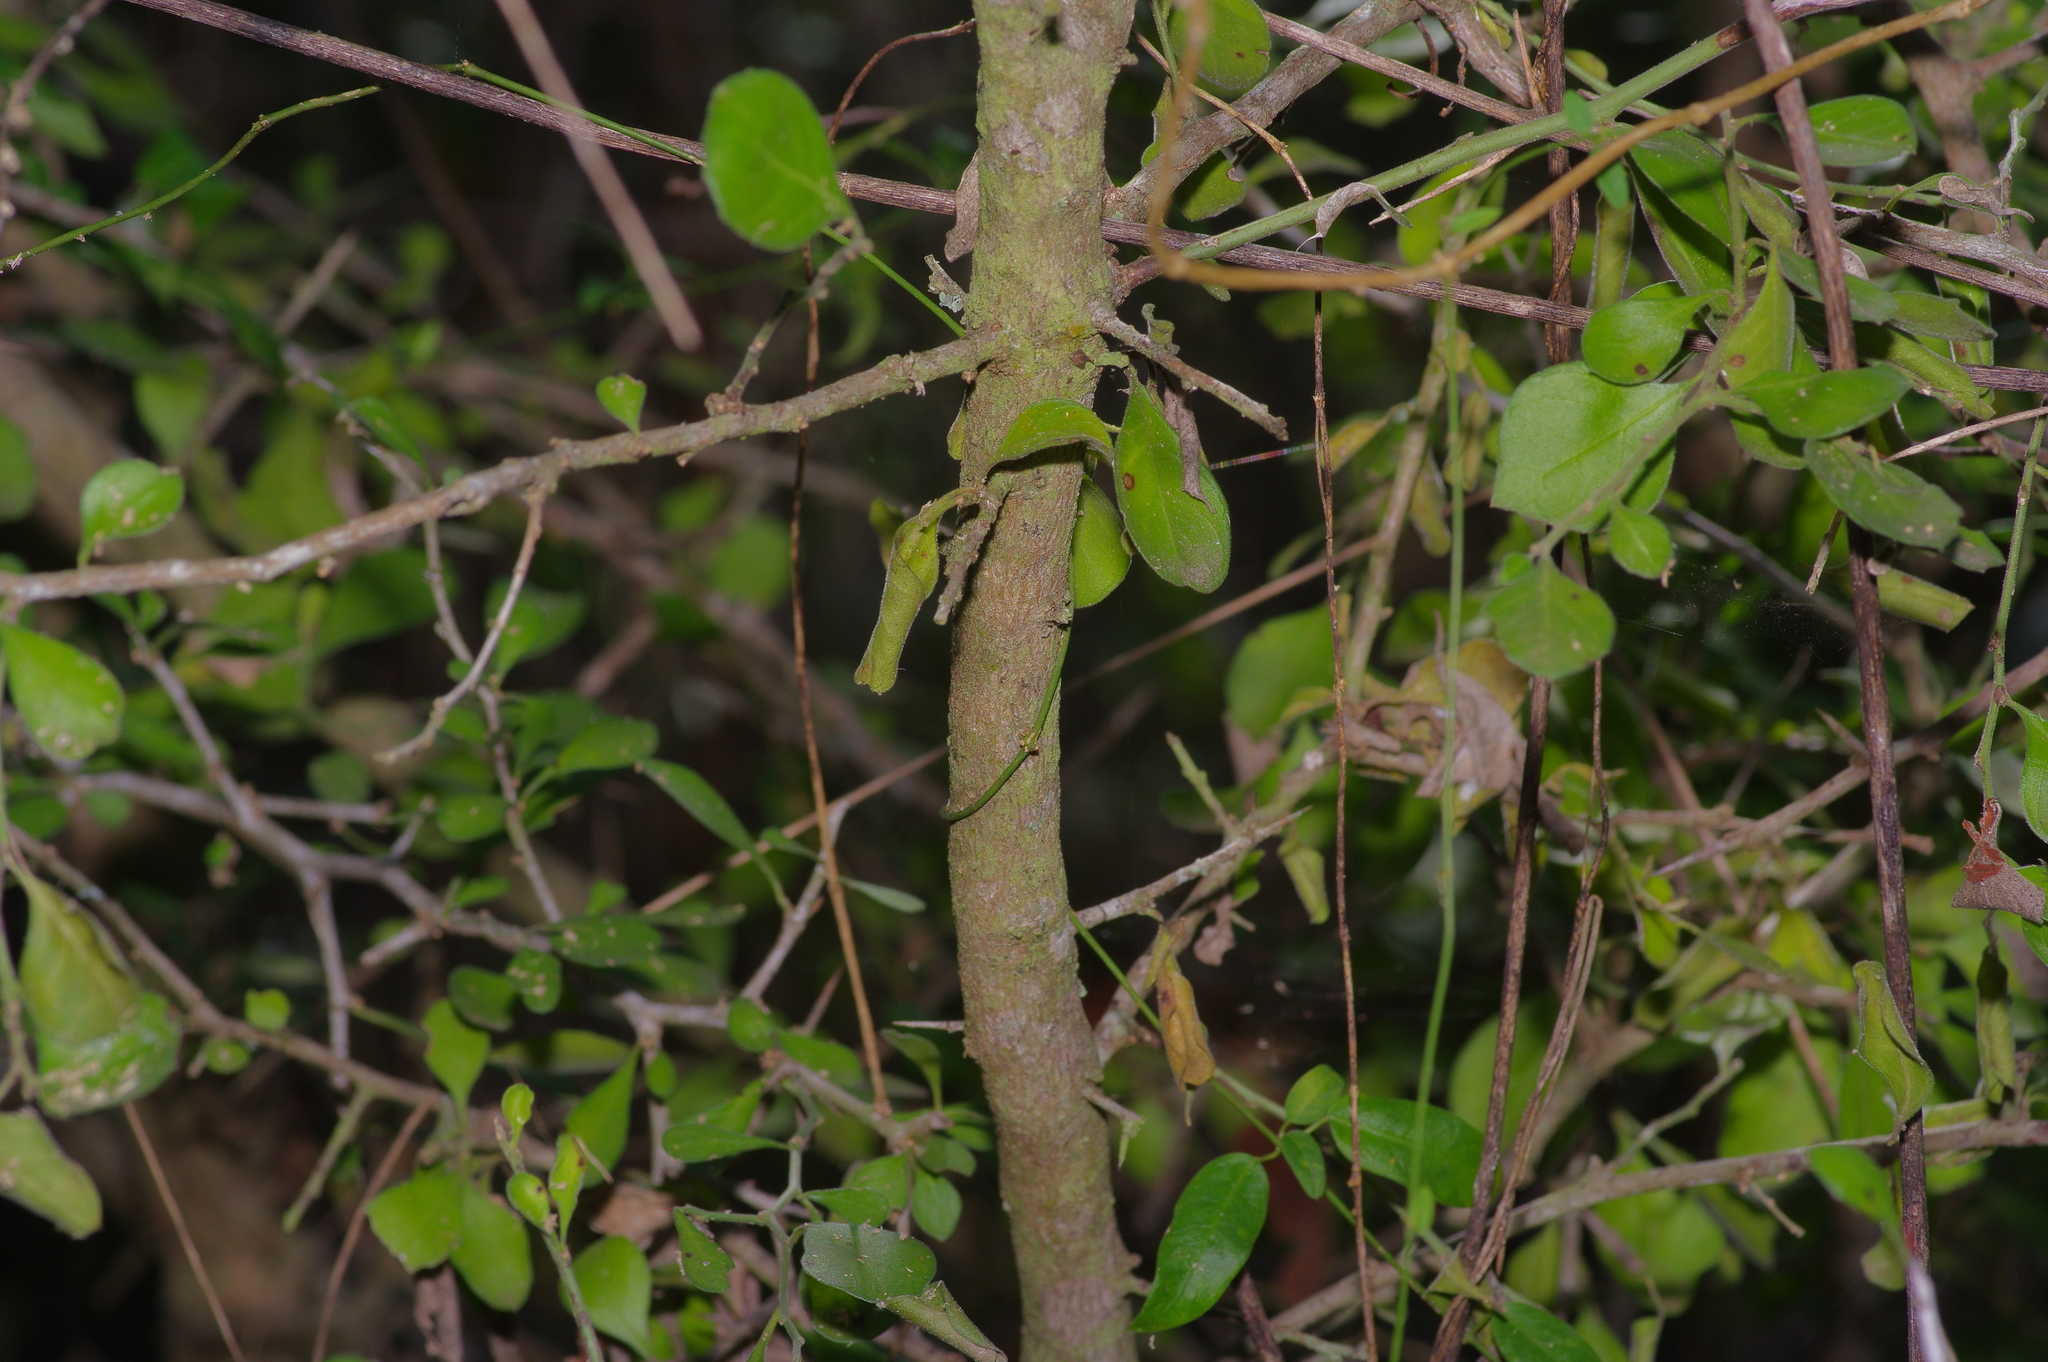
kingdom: Plantae
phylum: Tracheophyta
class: Magnoliopsida
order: Rosales
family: Rhamnaceae
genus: Condalia
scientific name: Condalia hookeri
